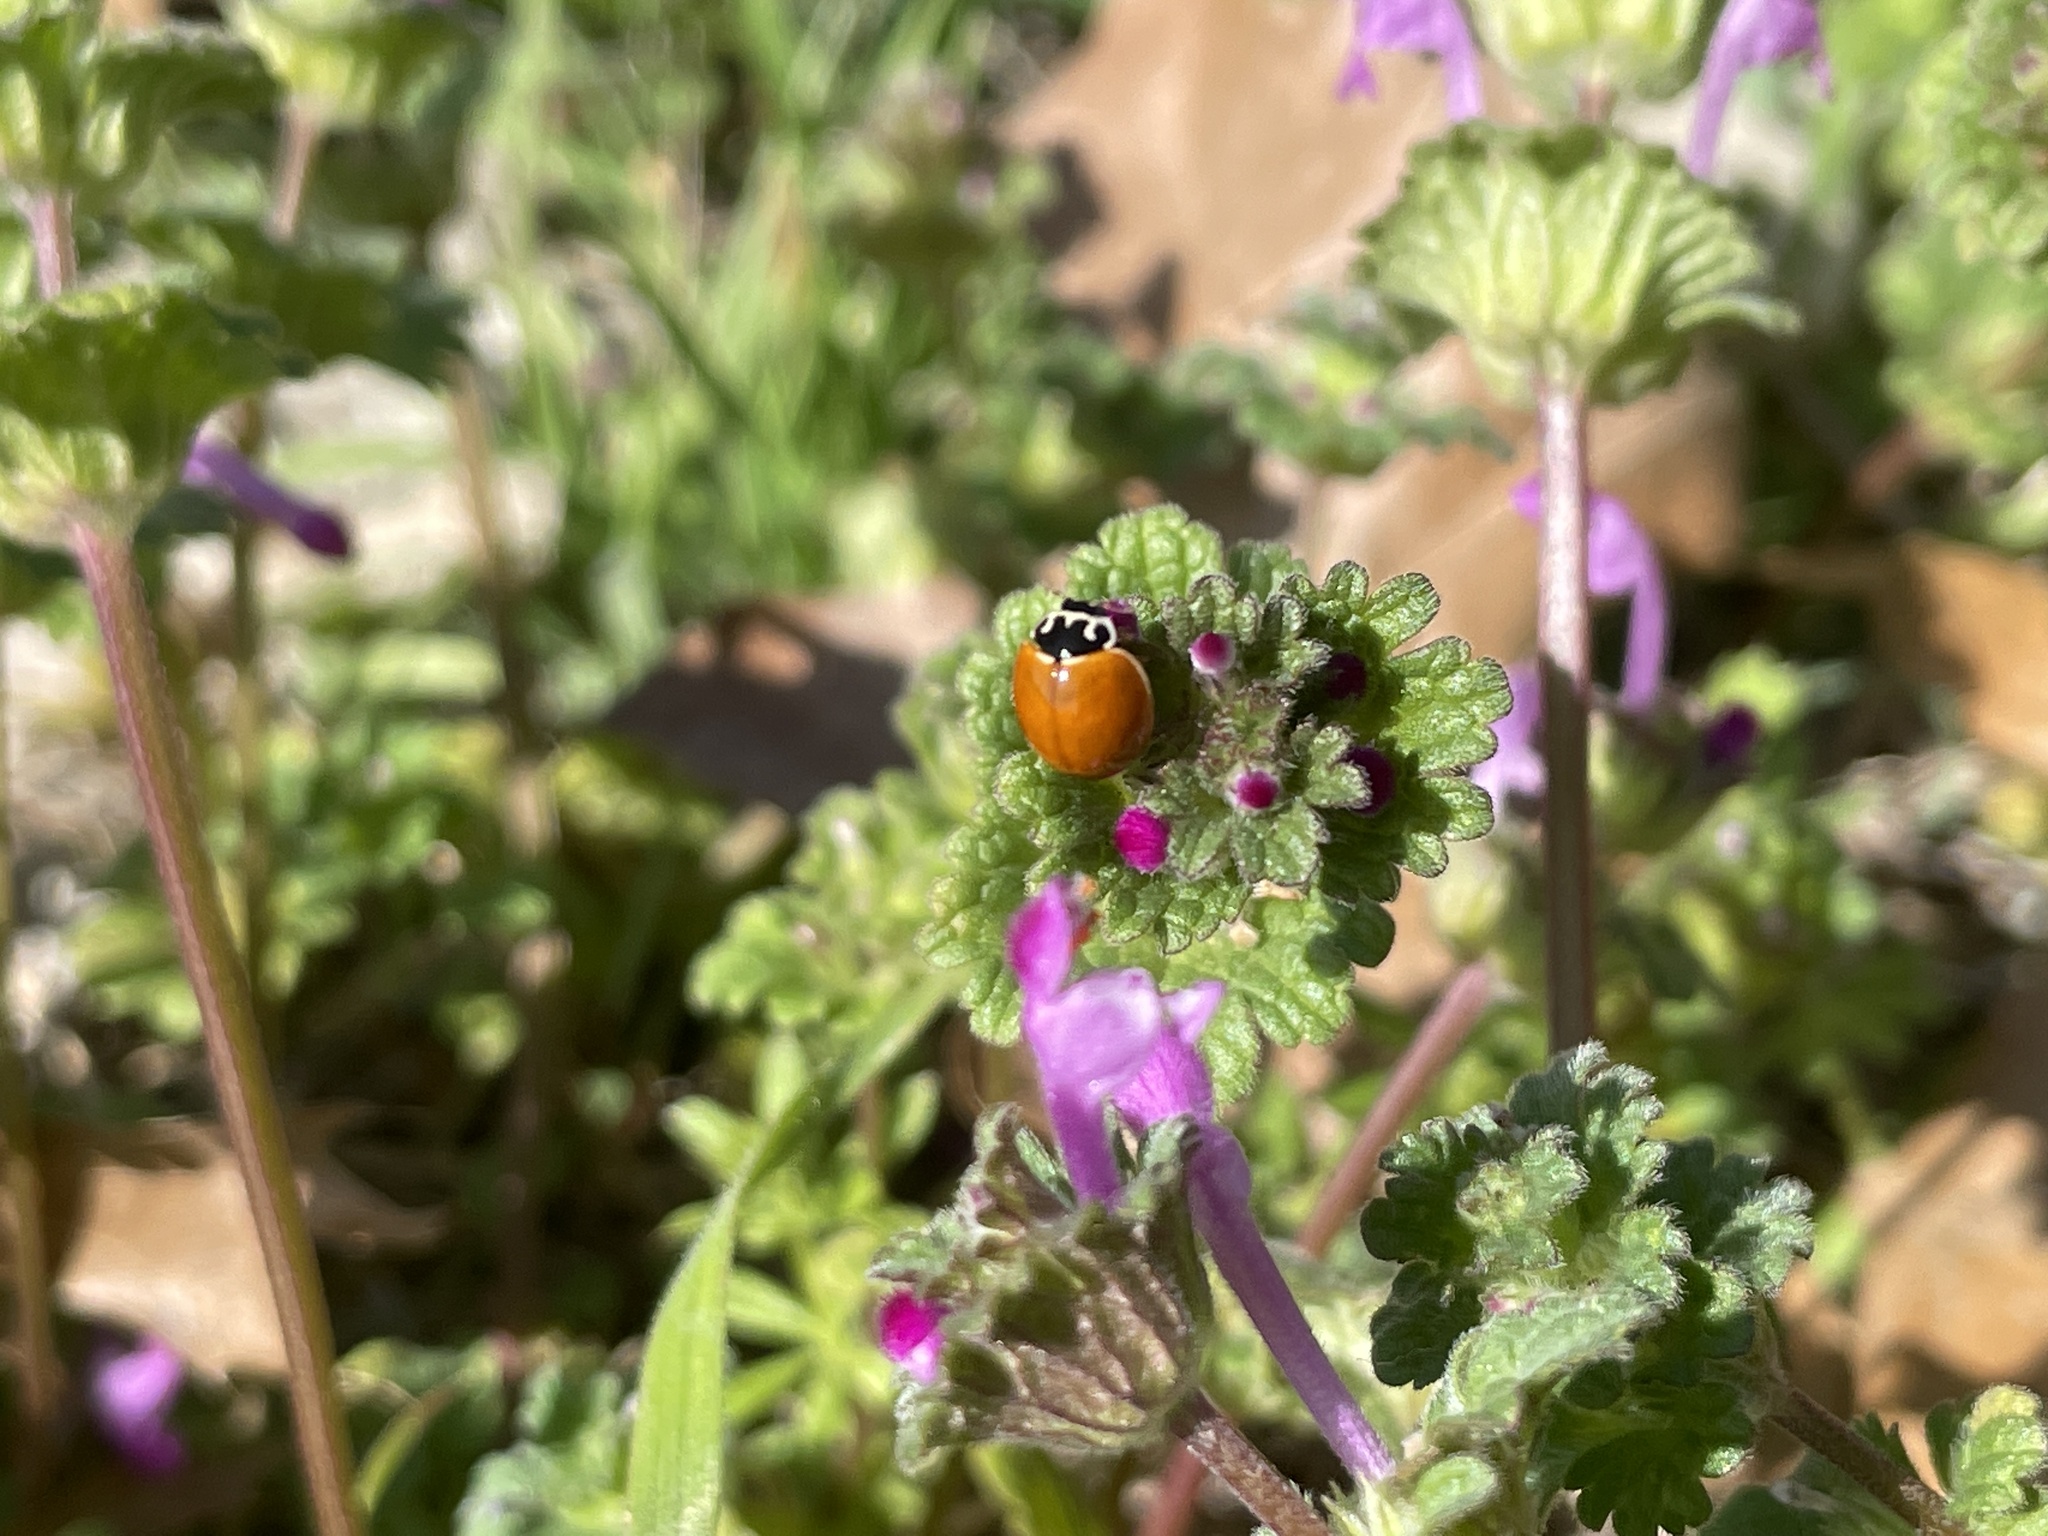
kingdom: Animalia
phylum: Arthropoda
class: Insecta
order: Coleoptera
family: Coccinellidae
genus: Cycloneda
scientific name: Cycloneda munda
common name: Polished lady beetle
